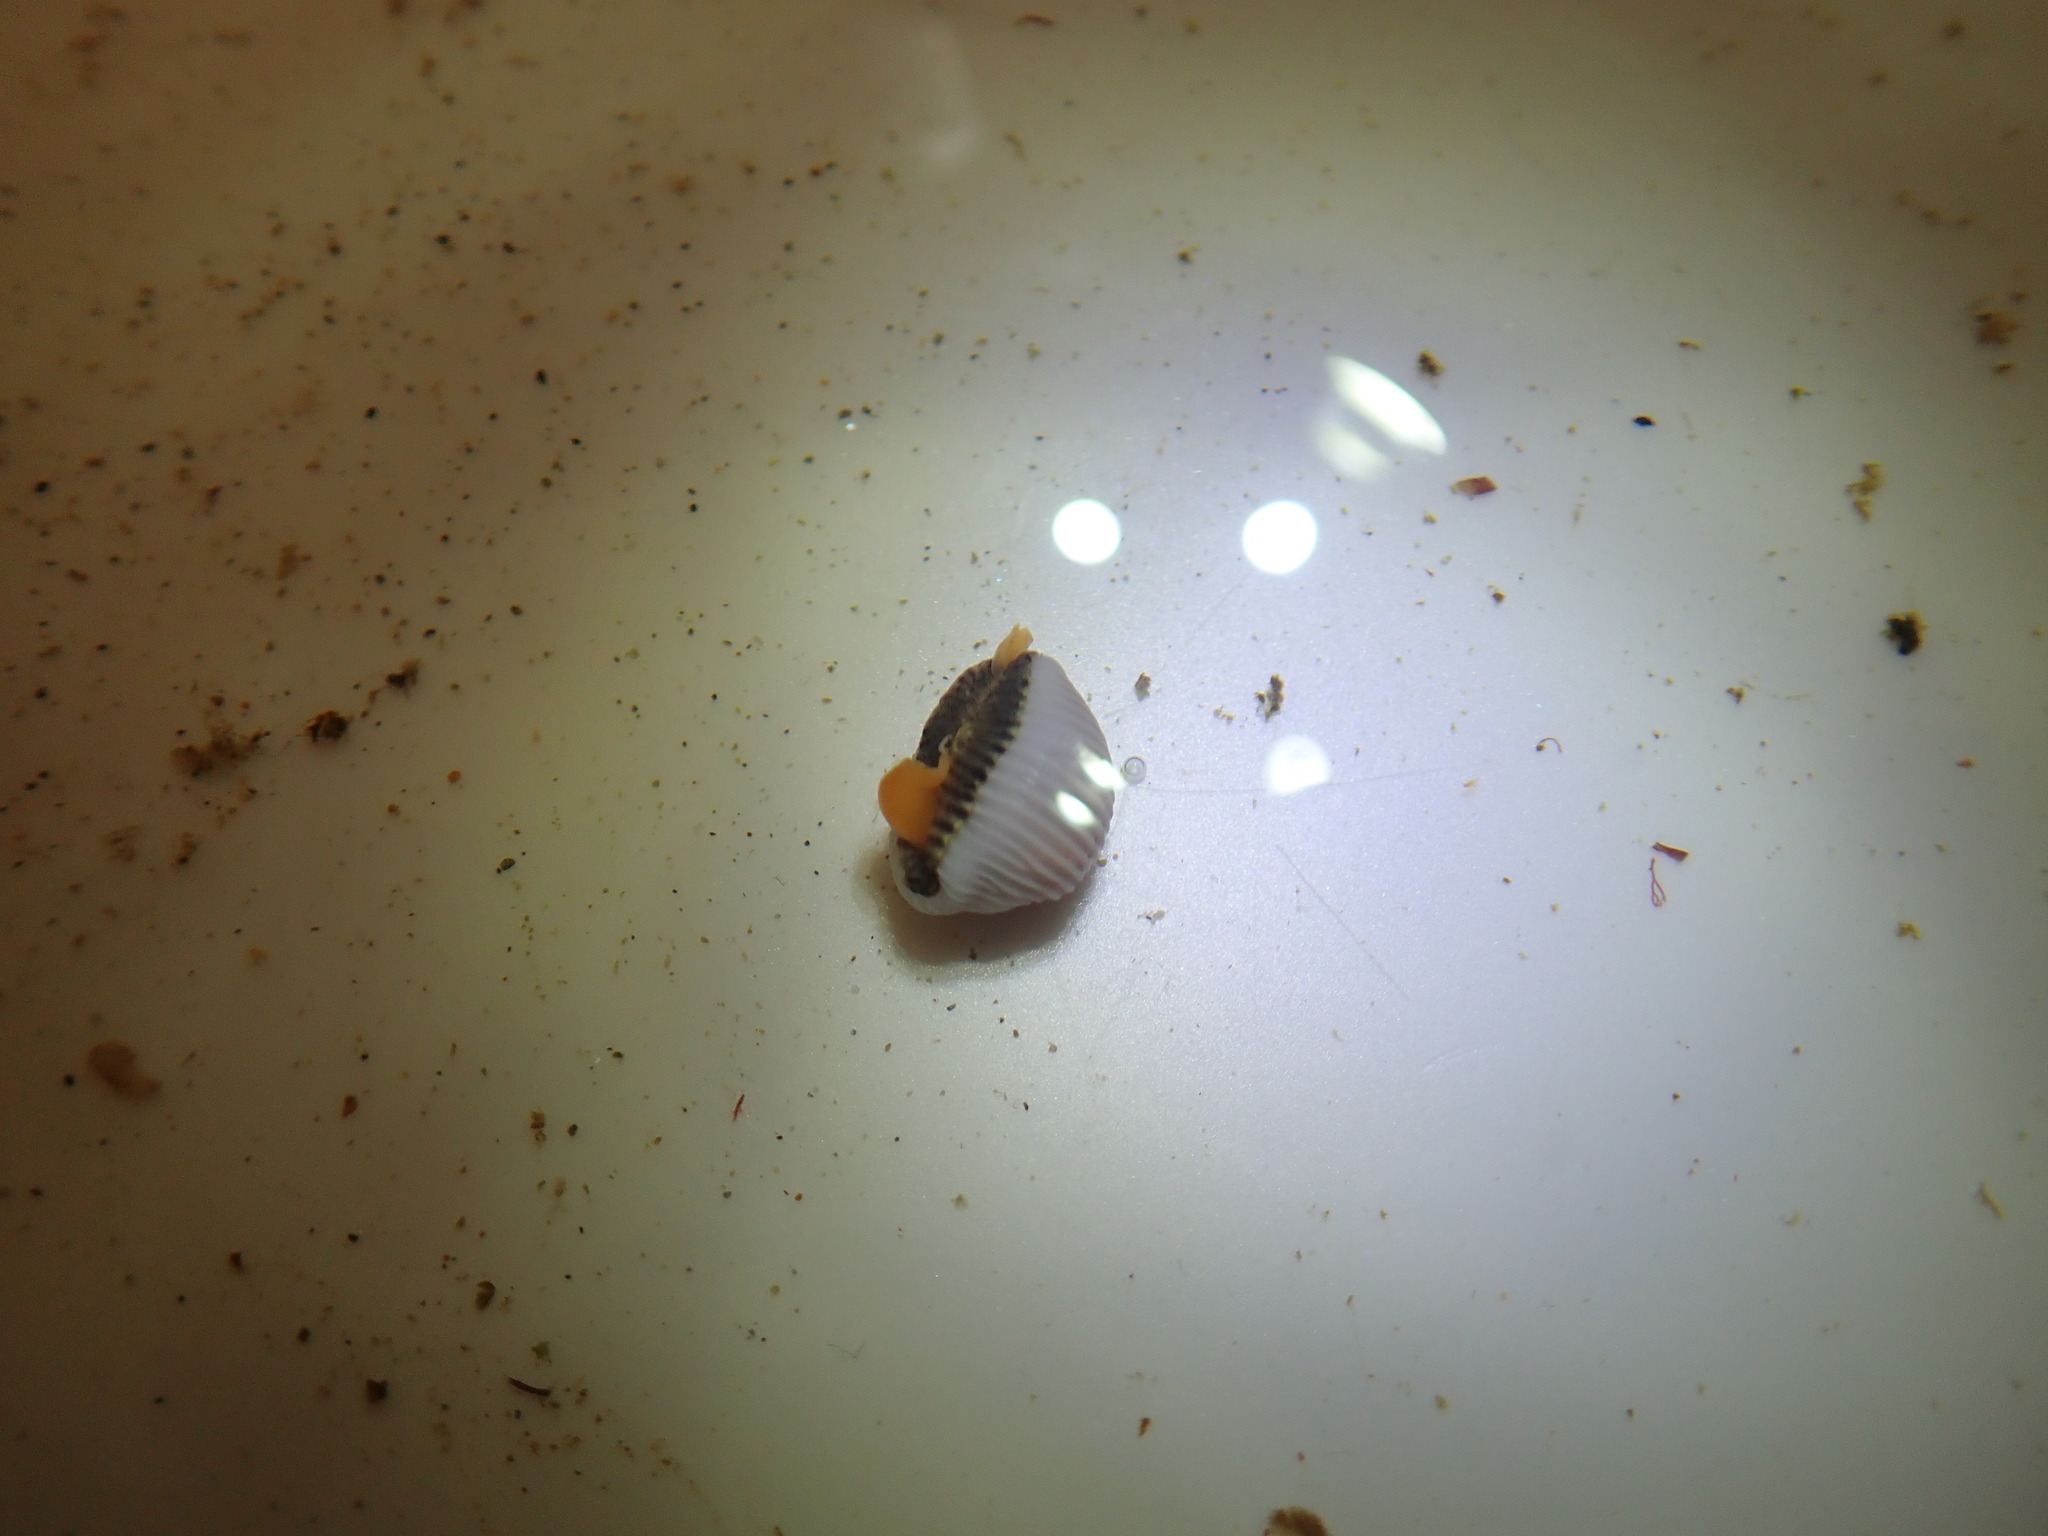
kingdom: Animalia
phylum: Mollusca
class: Gastropoda
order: Littorinimorpha
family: Triviidae
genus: Trivia
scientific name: Trivia arctica
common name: Arctic cowrie
